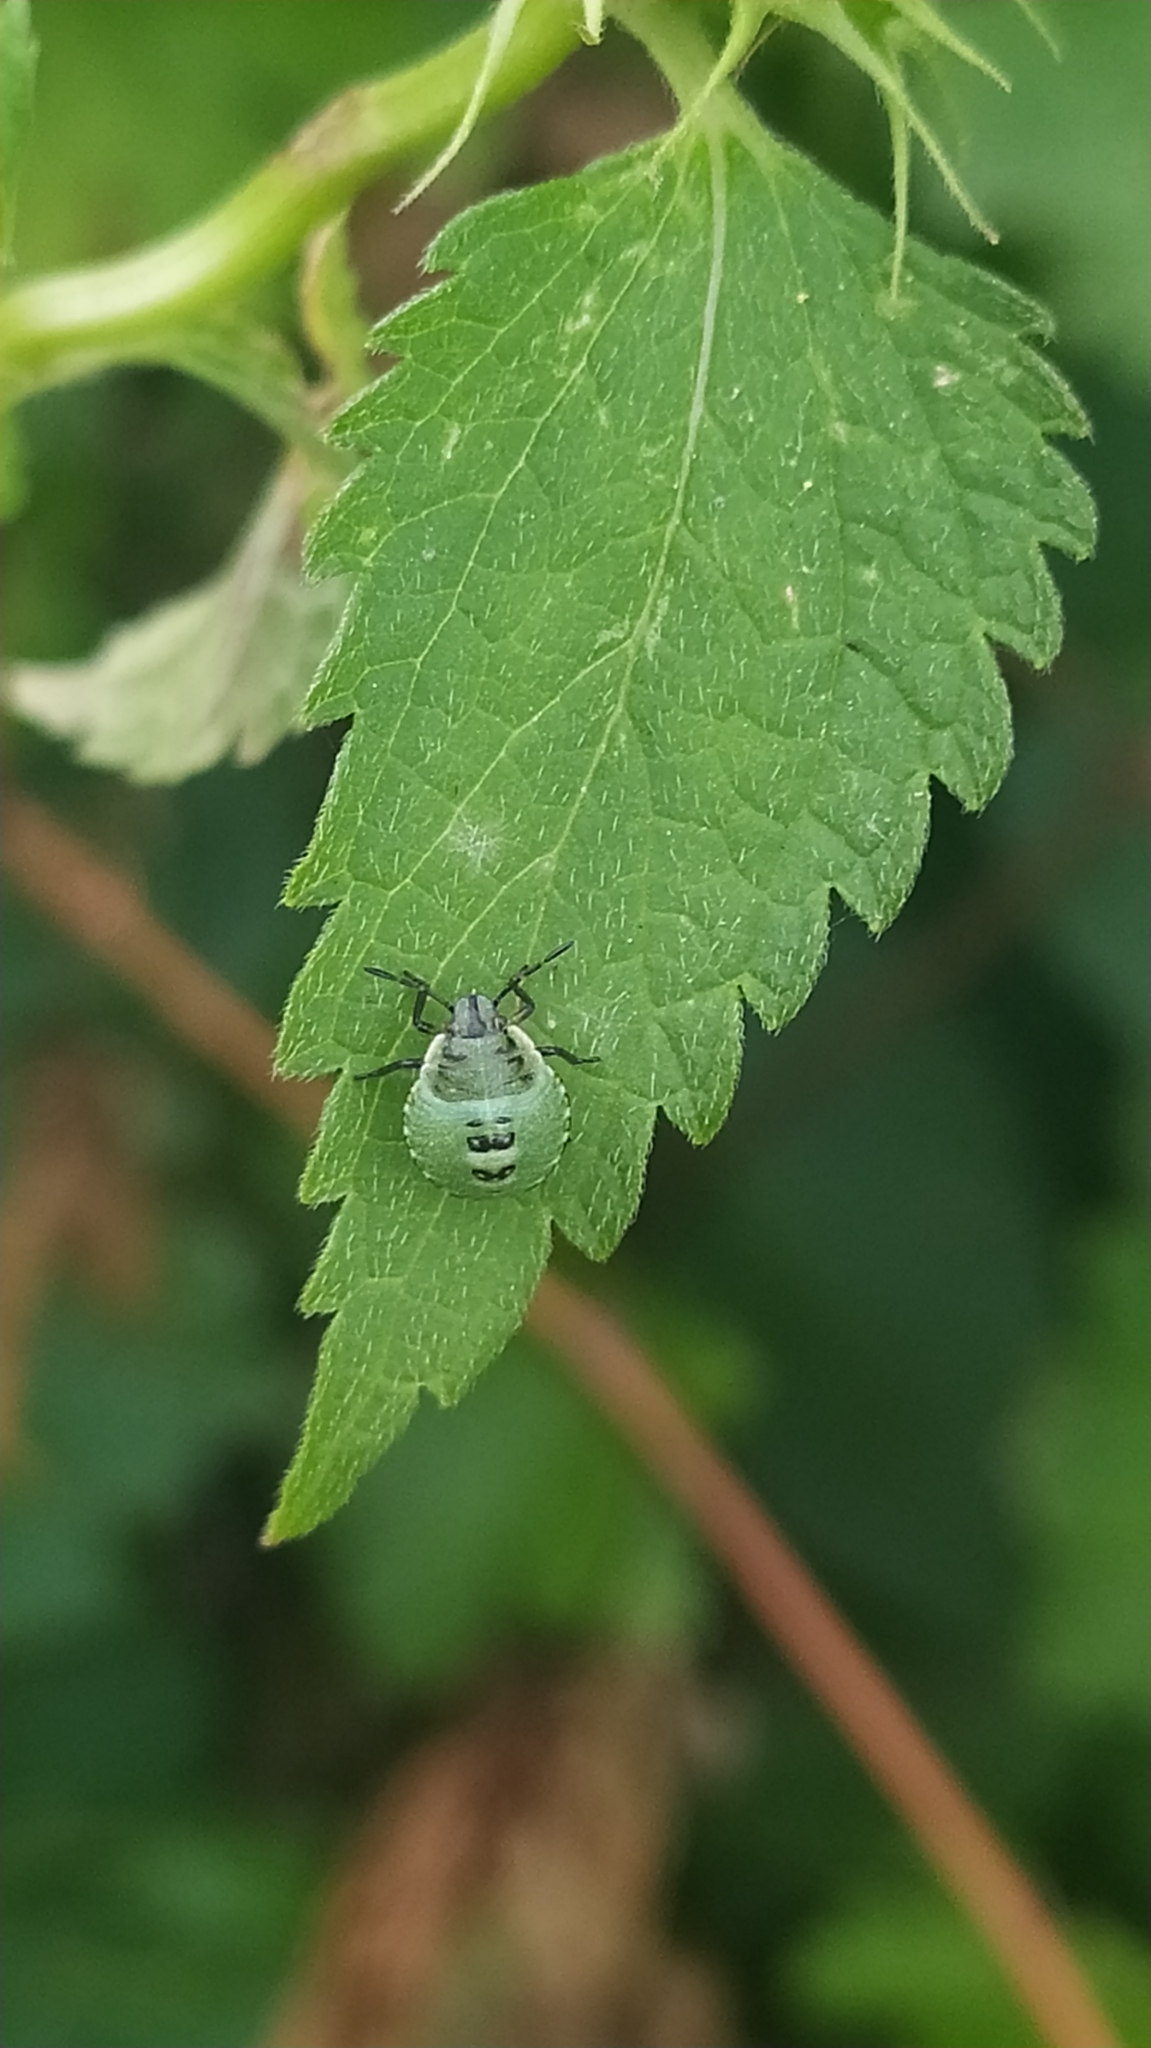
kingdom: Animalia
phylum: Arthropoda
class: Insecta
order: Hemiptera
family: Pentatomidae
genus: Palomena
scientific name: Palomena prasina
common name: Green shieldbug
